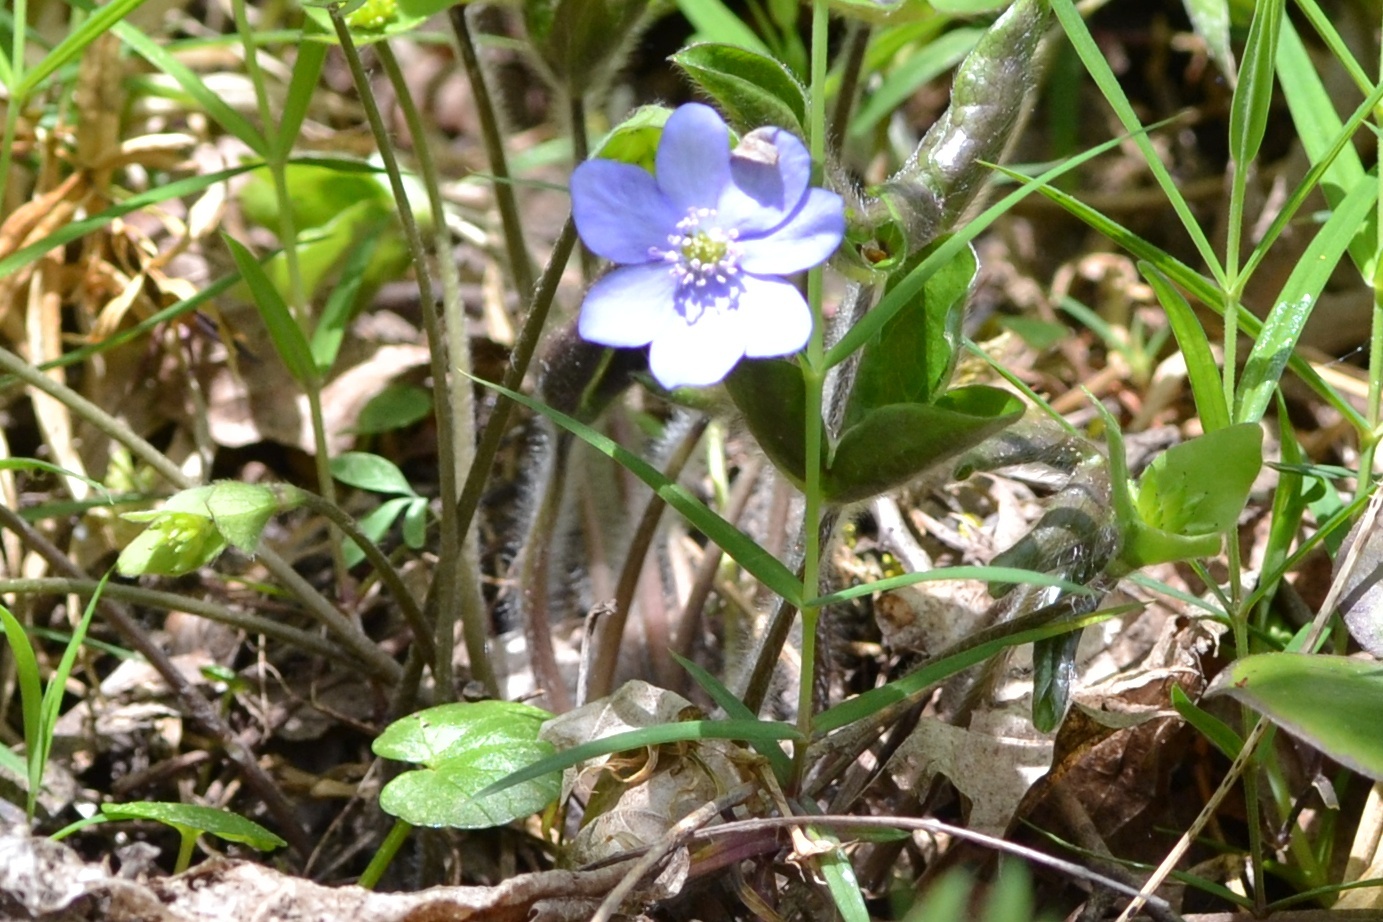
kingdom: Plantae
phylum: Tracheophyta
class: Magnoliopsida
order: Ranunculales
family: Ranunculaceae
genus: Hepatica
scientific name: Hepatica nobilis
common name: Liverleaf
